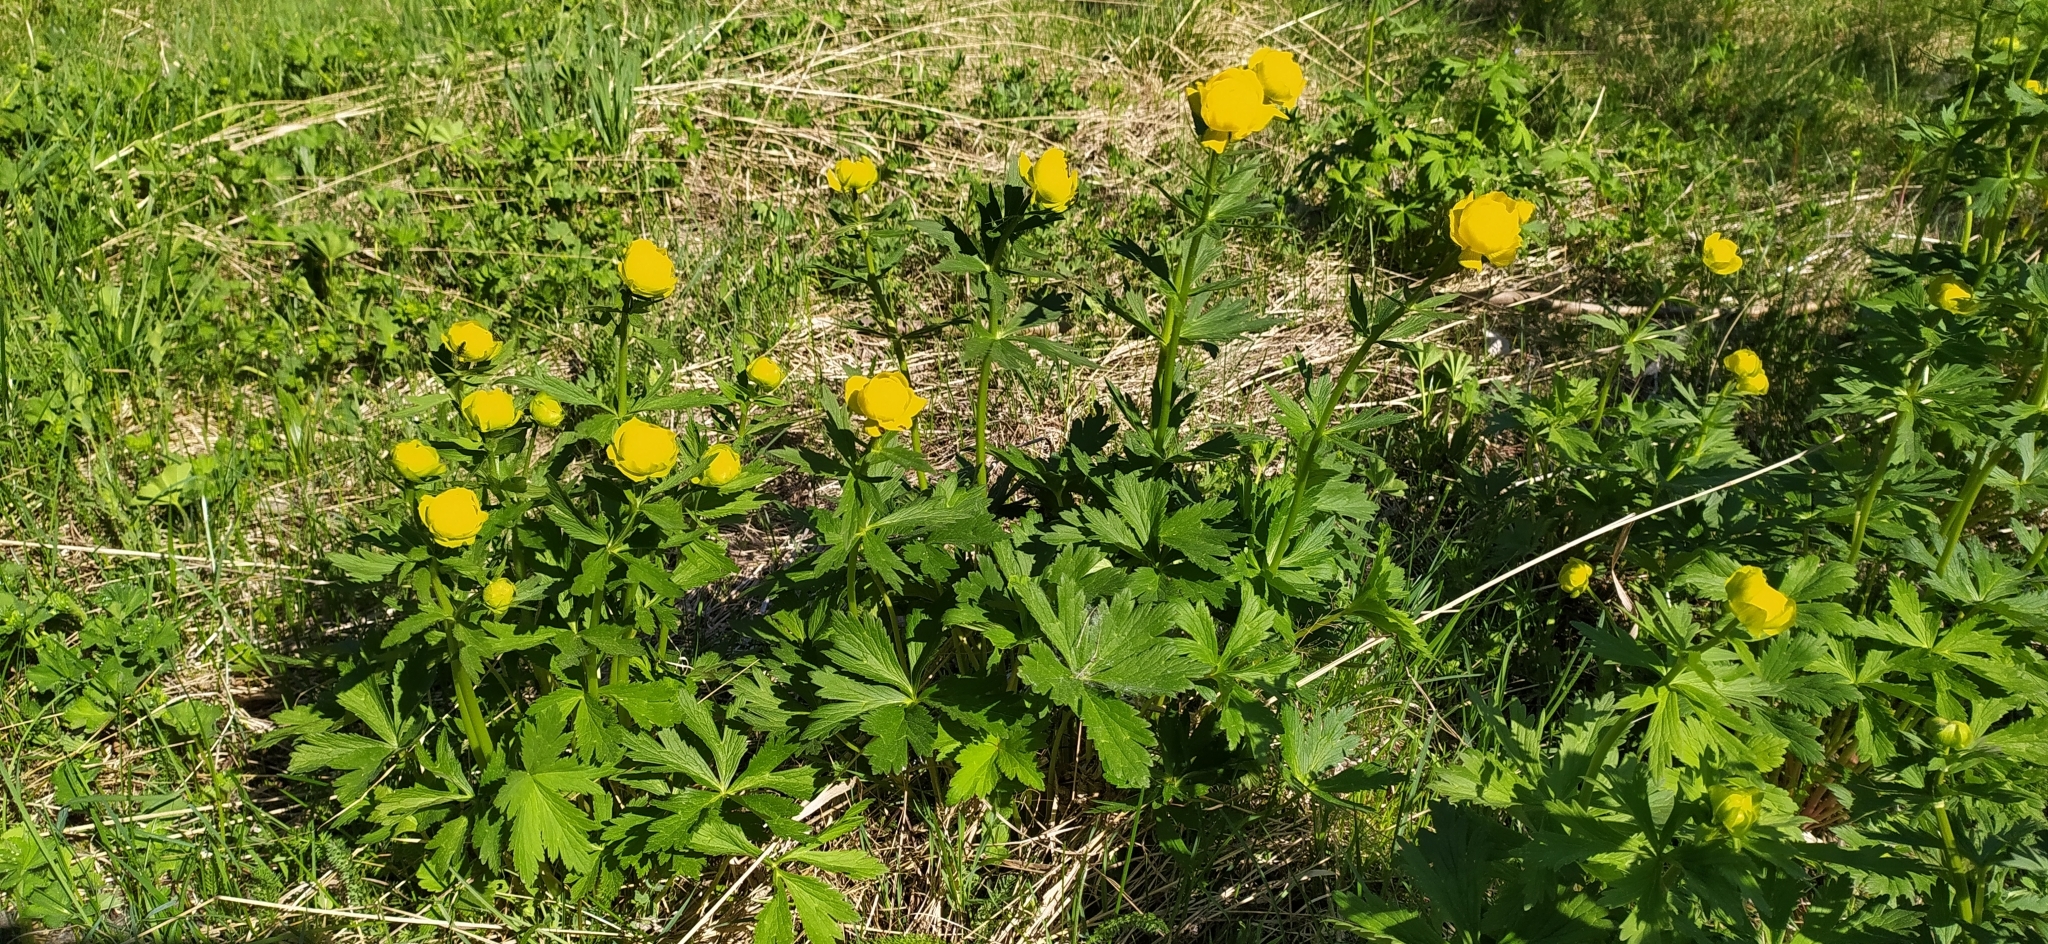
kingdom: Plantae
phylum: Tracheophyta
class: Magnoliopsida
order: Ranunculales
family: Ranunculaceae
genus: Trollius
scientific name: Trollius europaeus
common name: European globeflower
